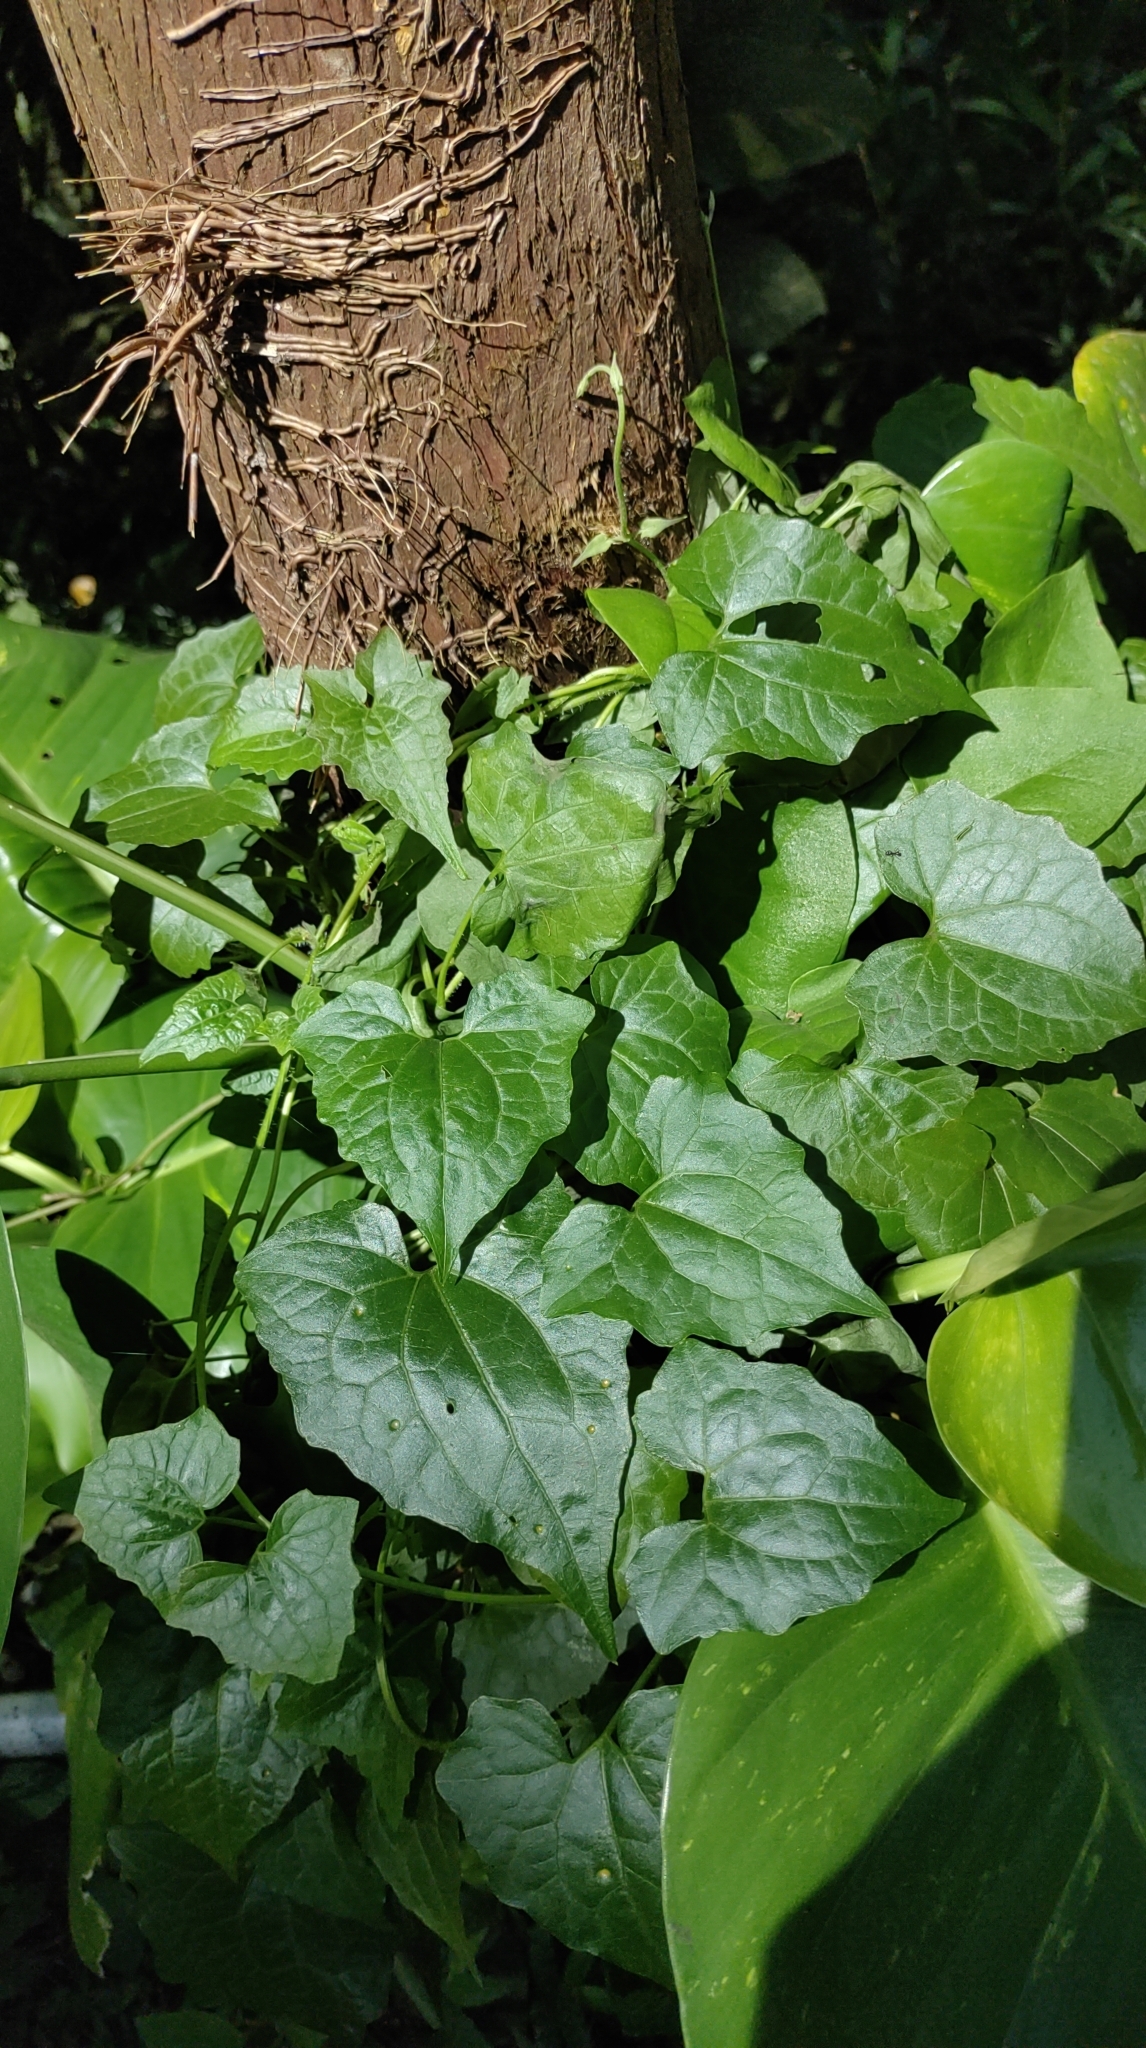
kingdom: Plantae
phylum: Tracheophyta
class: Magnoliopsida
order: Asterales
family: Asteraceae
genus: Mikania
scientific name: Mikania micrantha
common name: Mile-a-minute
